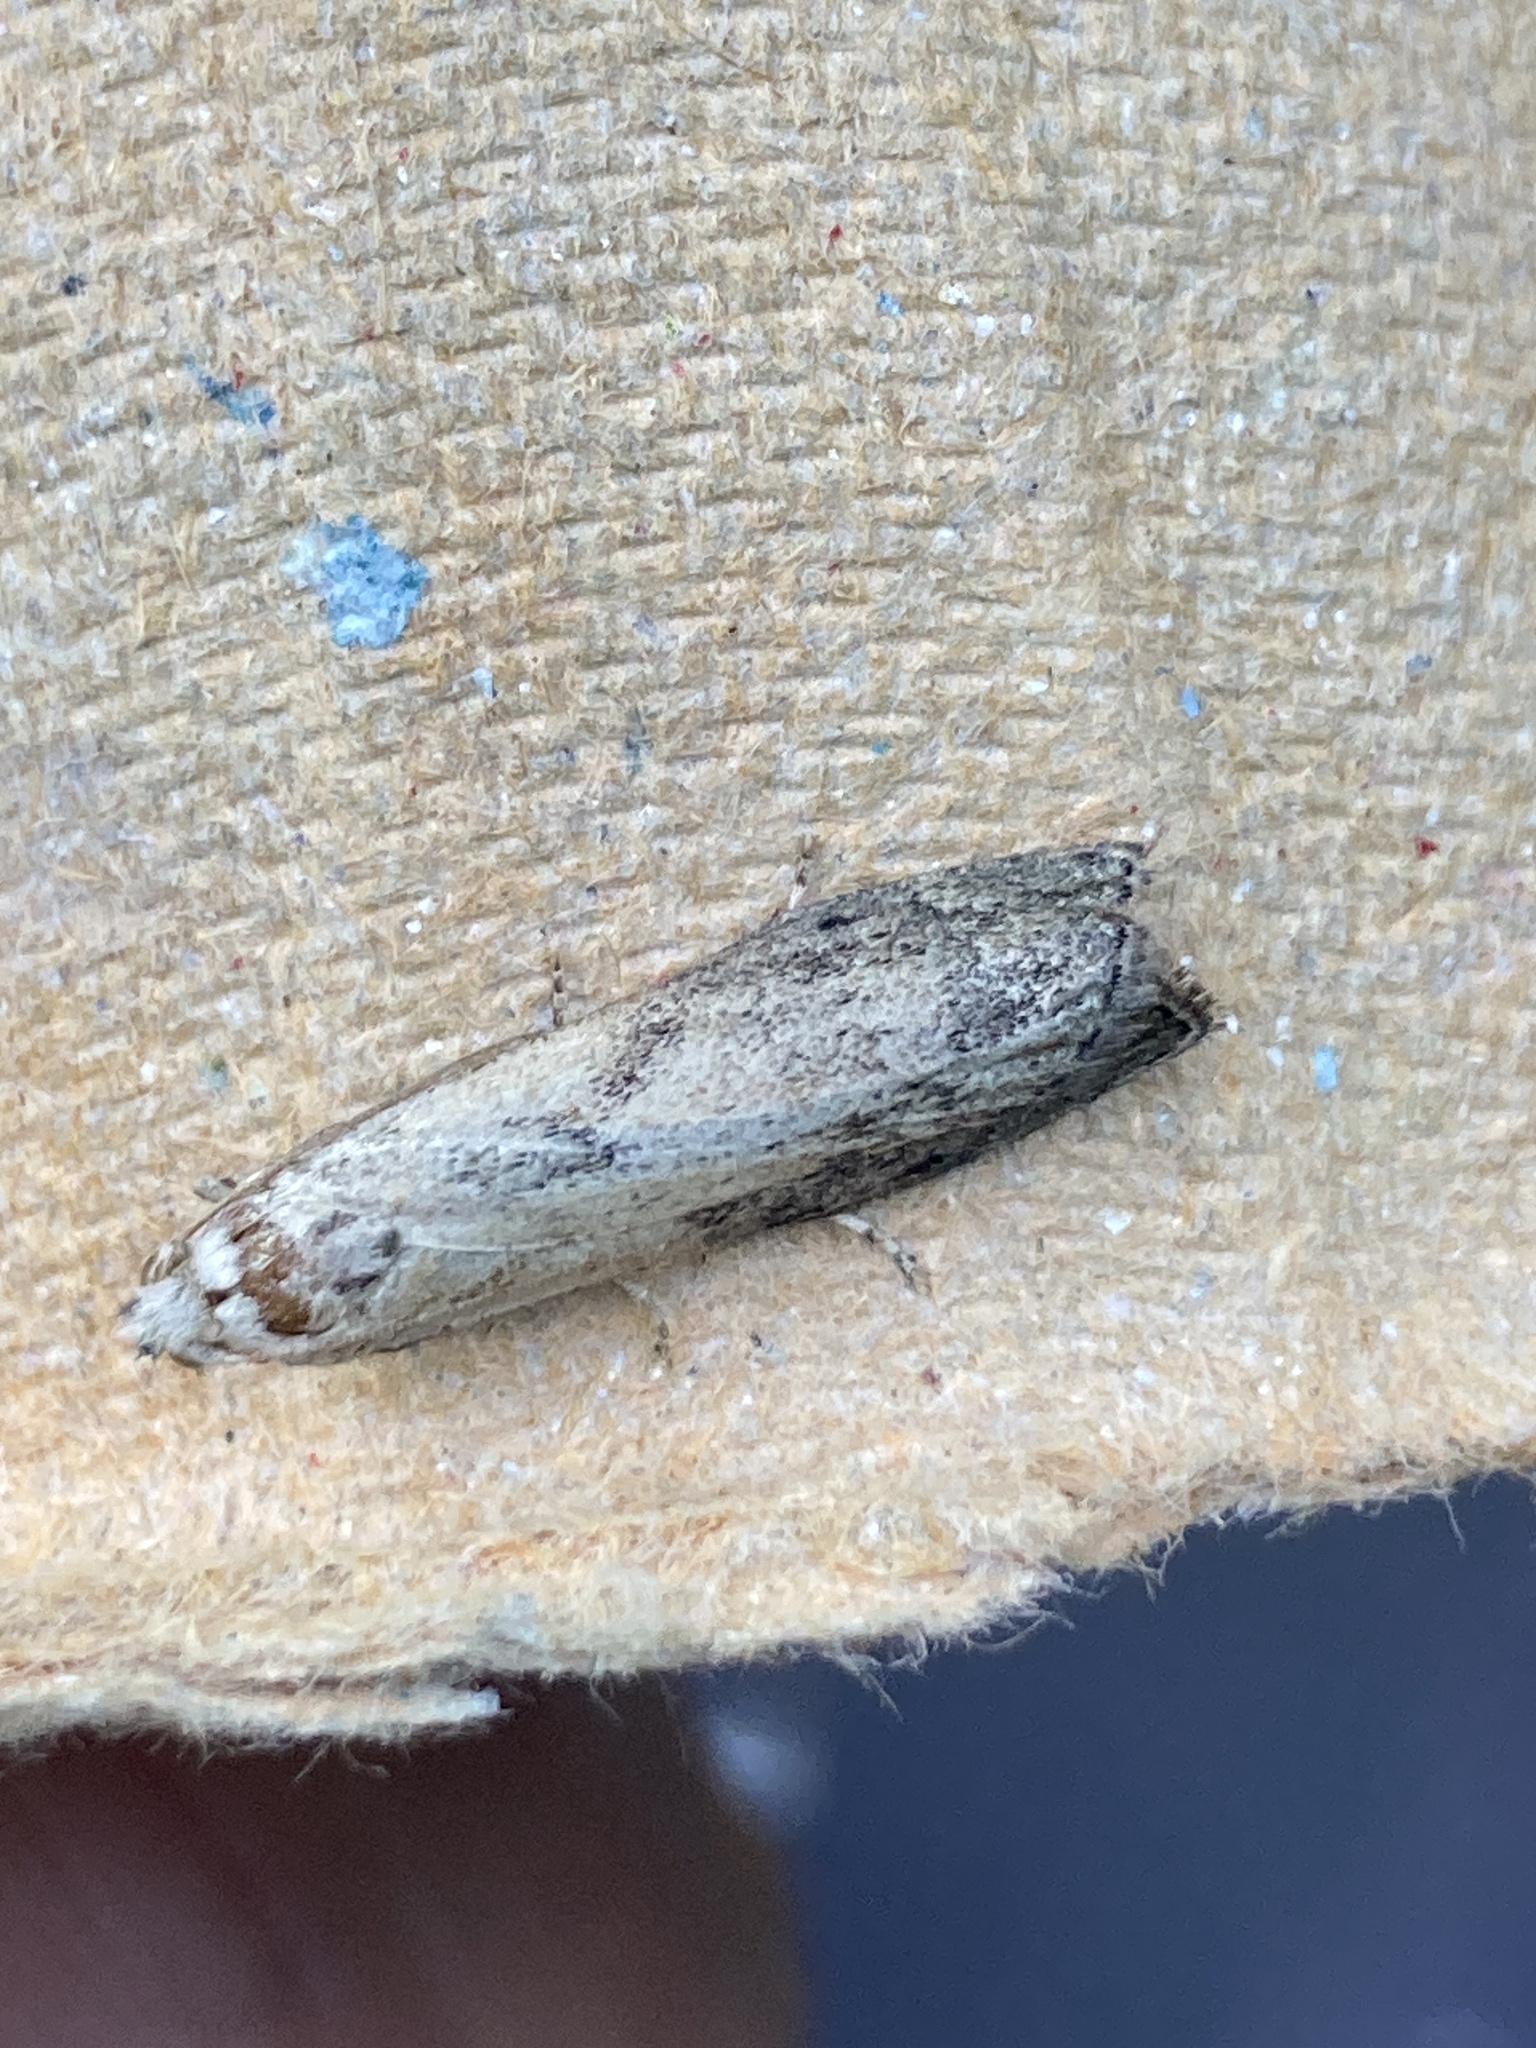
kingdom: Animalia
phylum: Arthropoda
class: Insecta
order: Lepidoptera
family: Pyralidae
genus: Aphomia
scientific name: Aphomia sociella
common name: Bee moth
